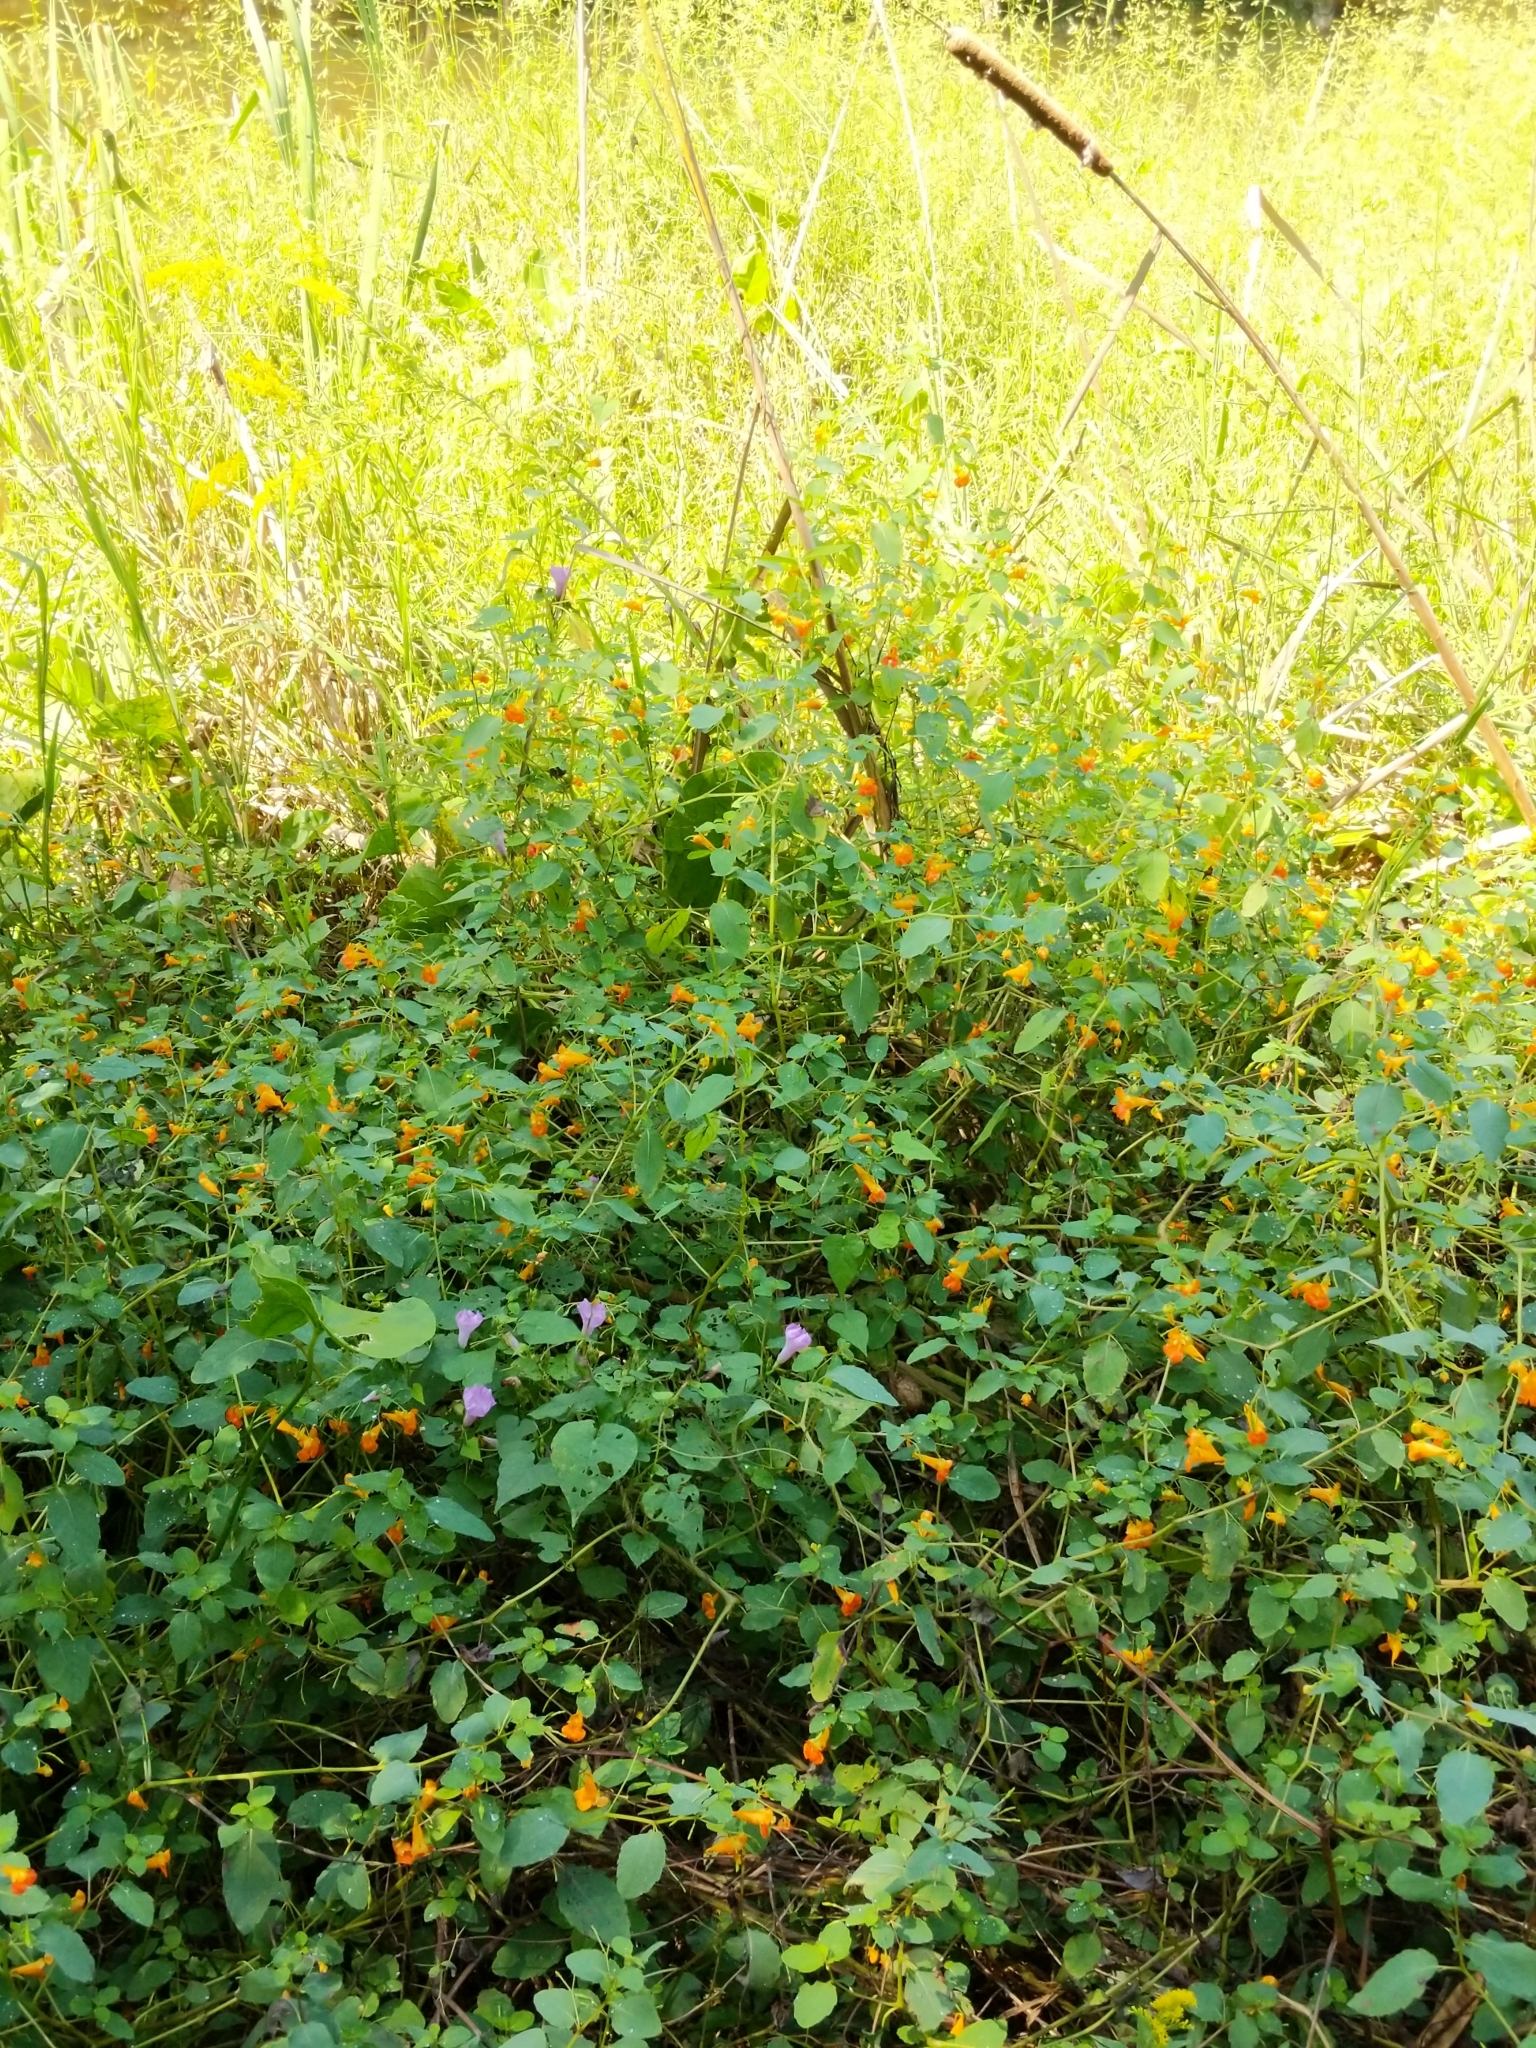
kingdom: Plantae
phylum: Tracheophyta
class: Magnoliopsida
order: Ericales
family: Balsaminaceae
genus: Impatiens
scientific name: Impatiens capensis
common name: Orange balsam
